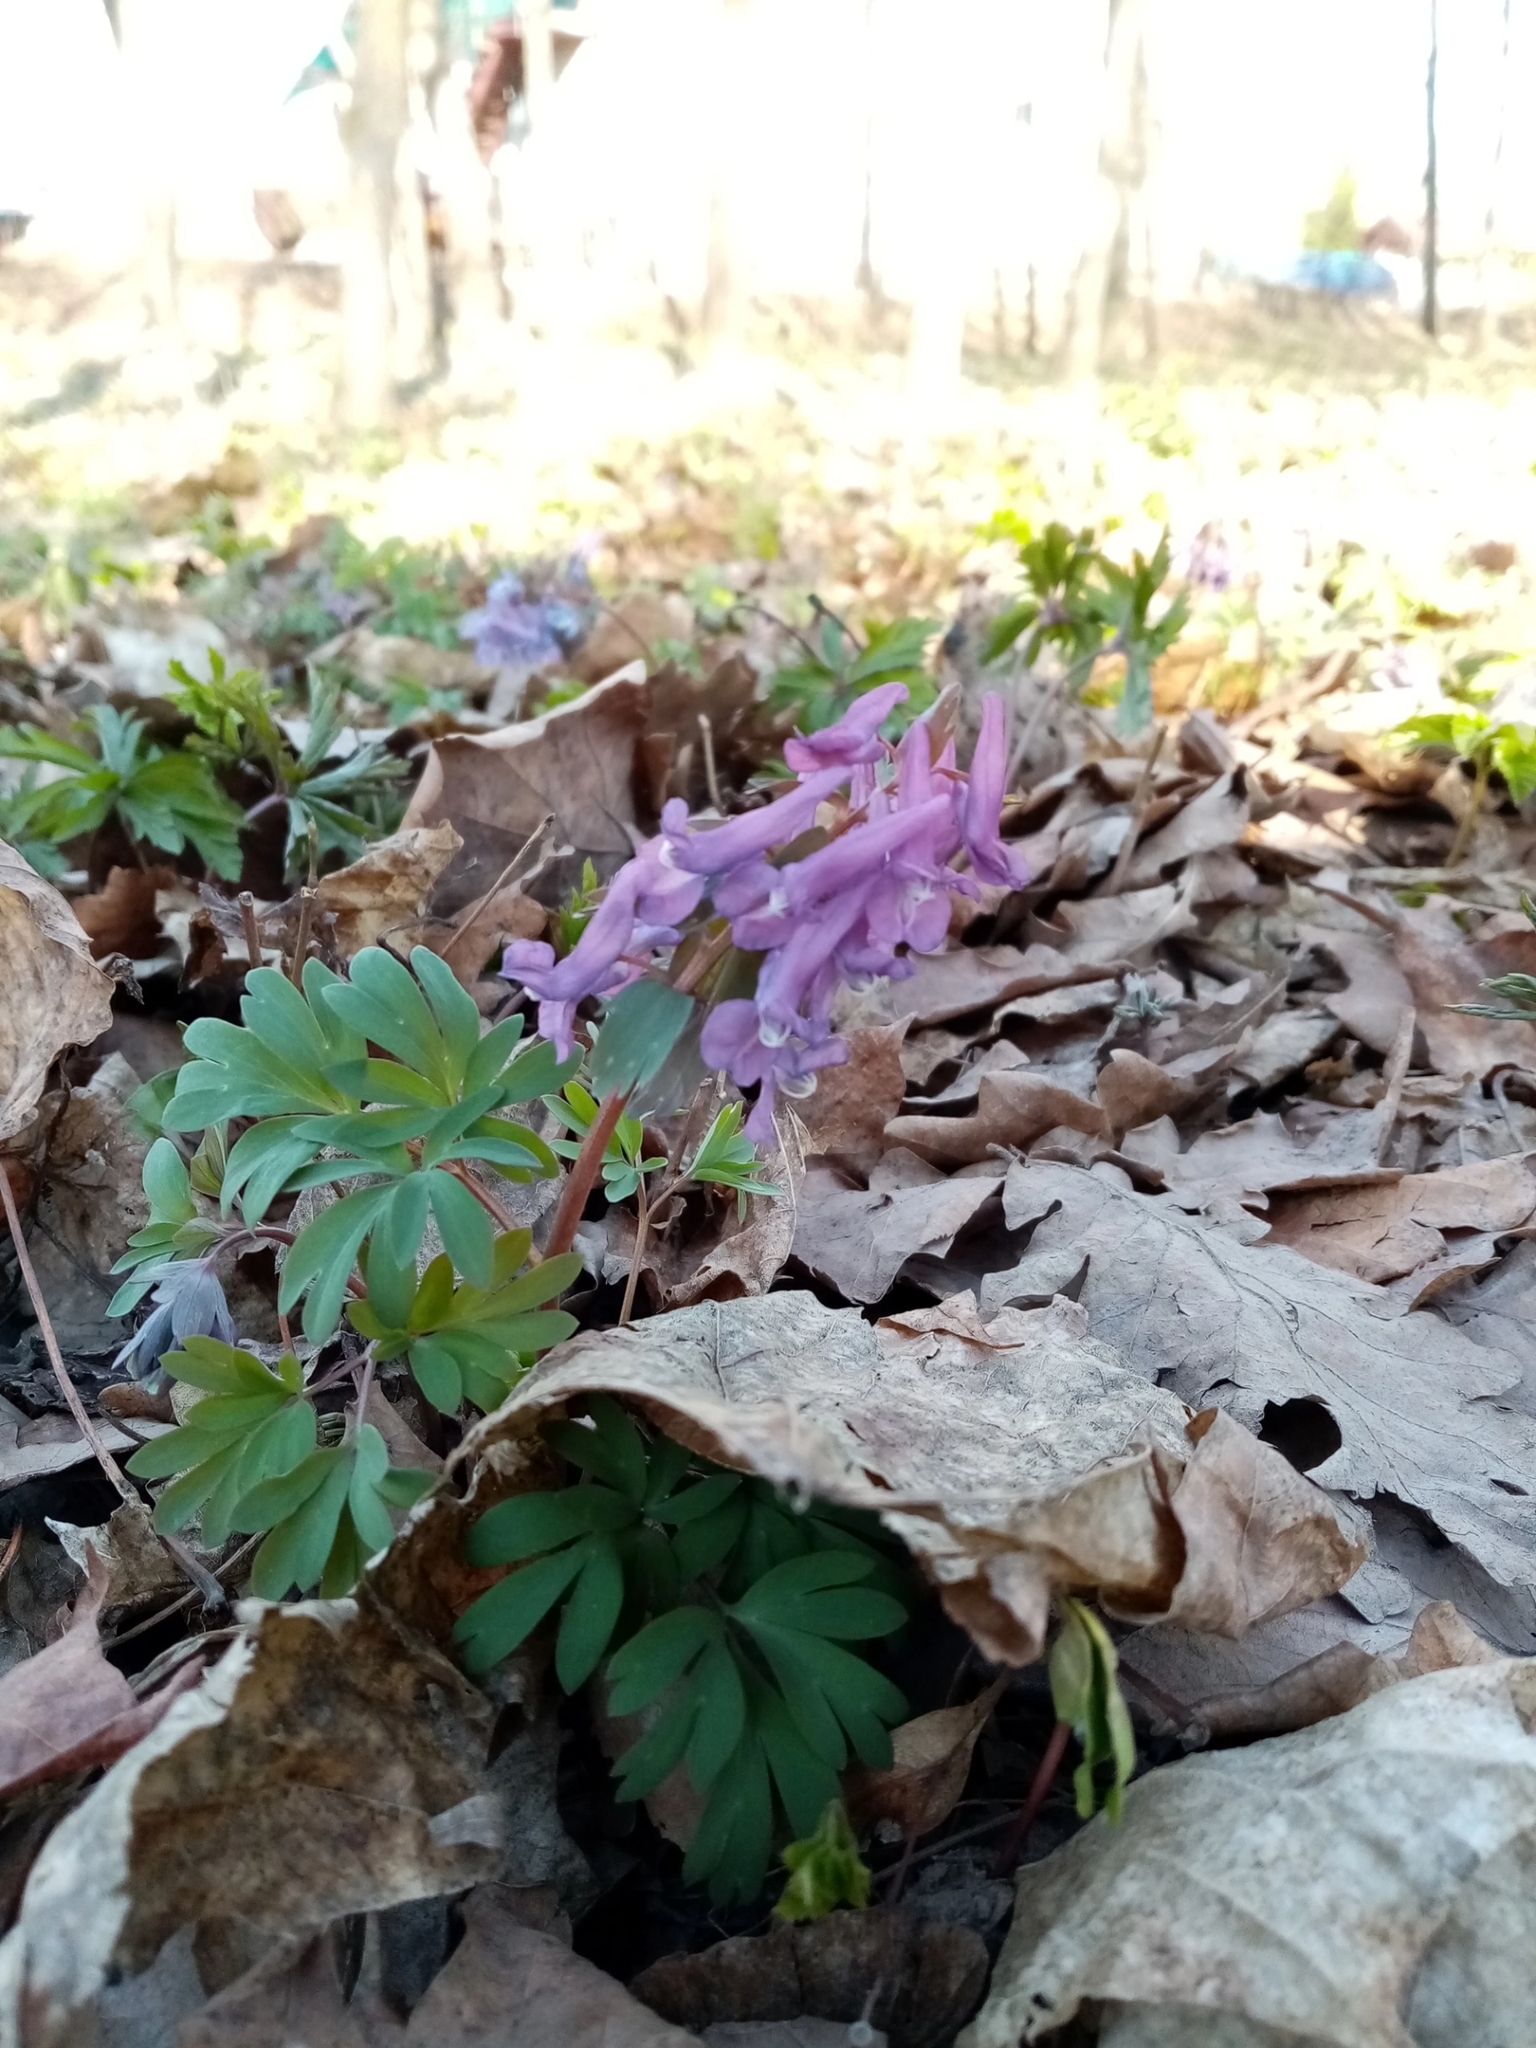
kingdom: Plantae
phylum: Tracheophyta
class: Magnoliopsida
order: Ranunculales
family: Papaveraceae
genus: Corydalis
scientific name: Corydalis solida
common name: Bird-in-a-bush
